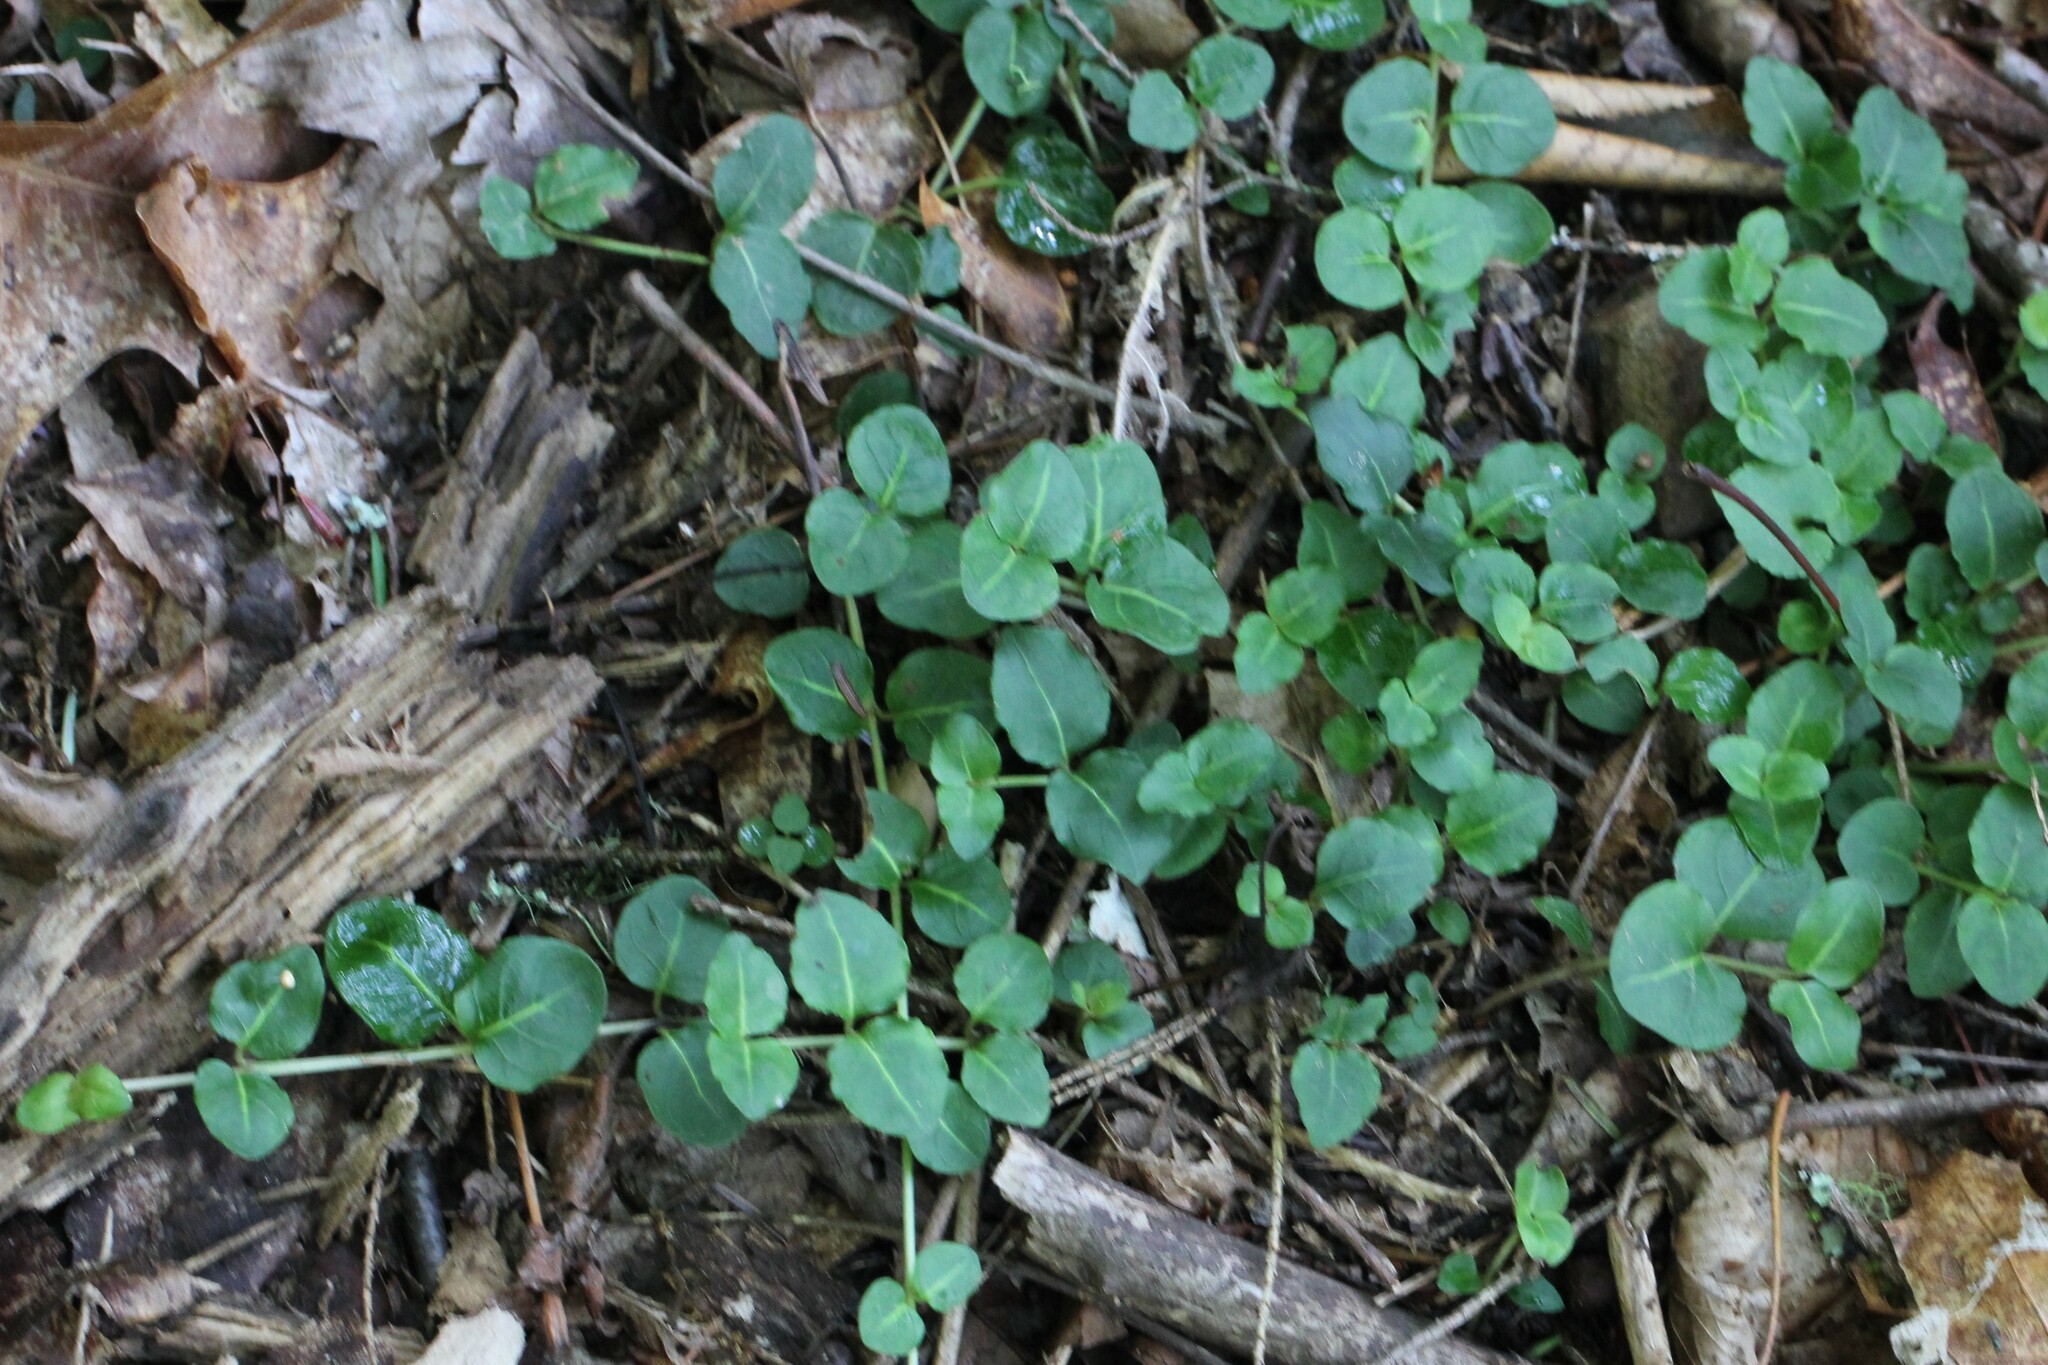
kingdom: Plantae
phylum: Tracheophyta
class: Magnoliopsida
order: Gentianales
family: Rubiaceae
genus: Mitchella
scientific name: Mitchella repens
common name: Partridge-berry
